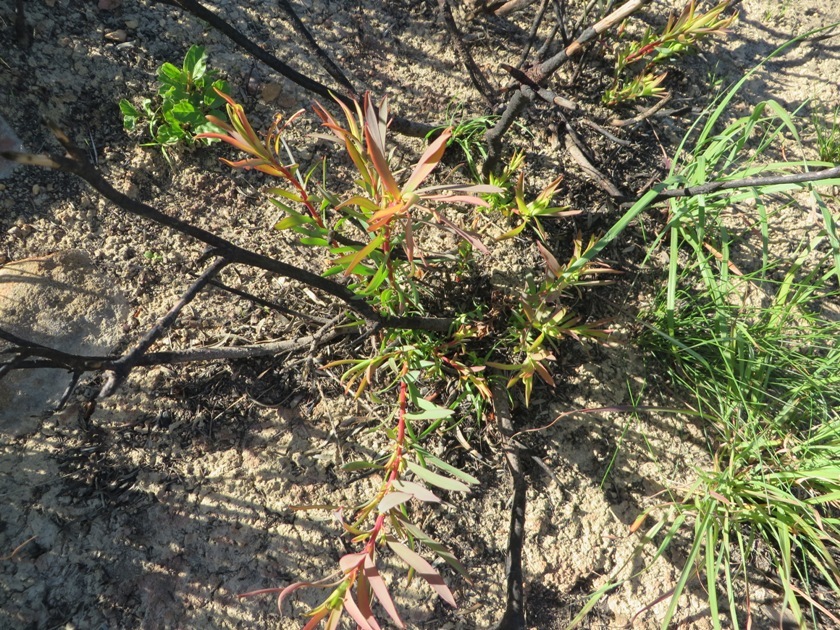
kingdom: Plantae
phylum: Tracheophyta
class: Magnoliopsida
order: Proteales
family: Proteaceae
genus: Leucadendron
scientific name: Leucadendron salignum
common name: Common sunshine conebush
